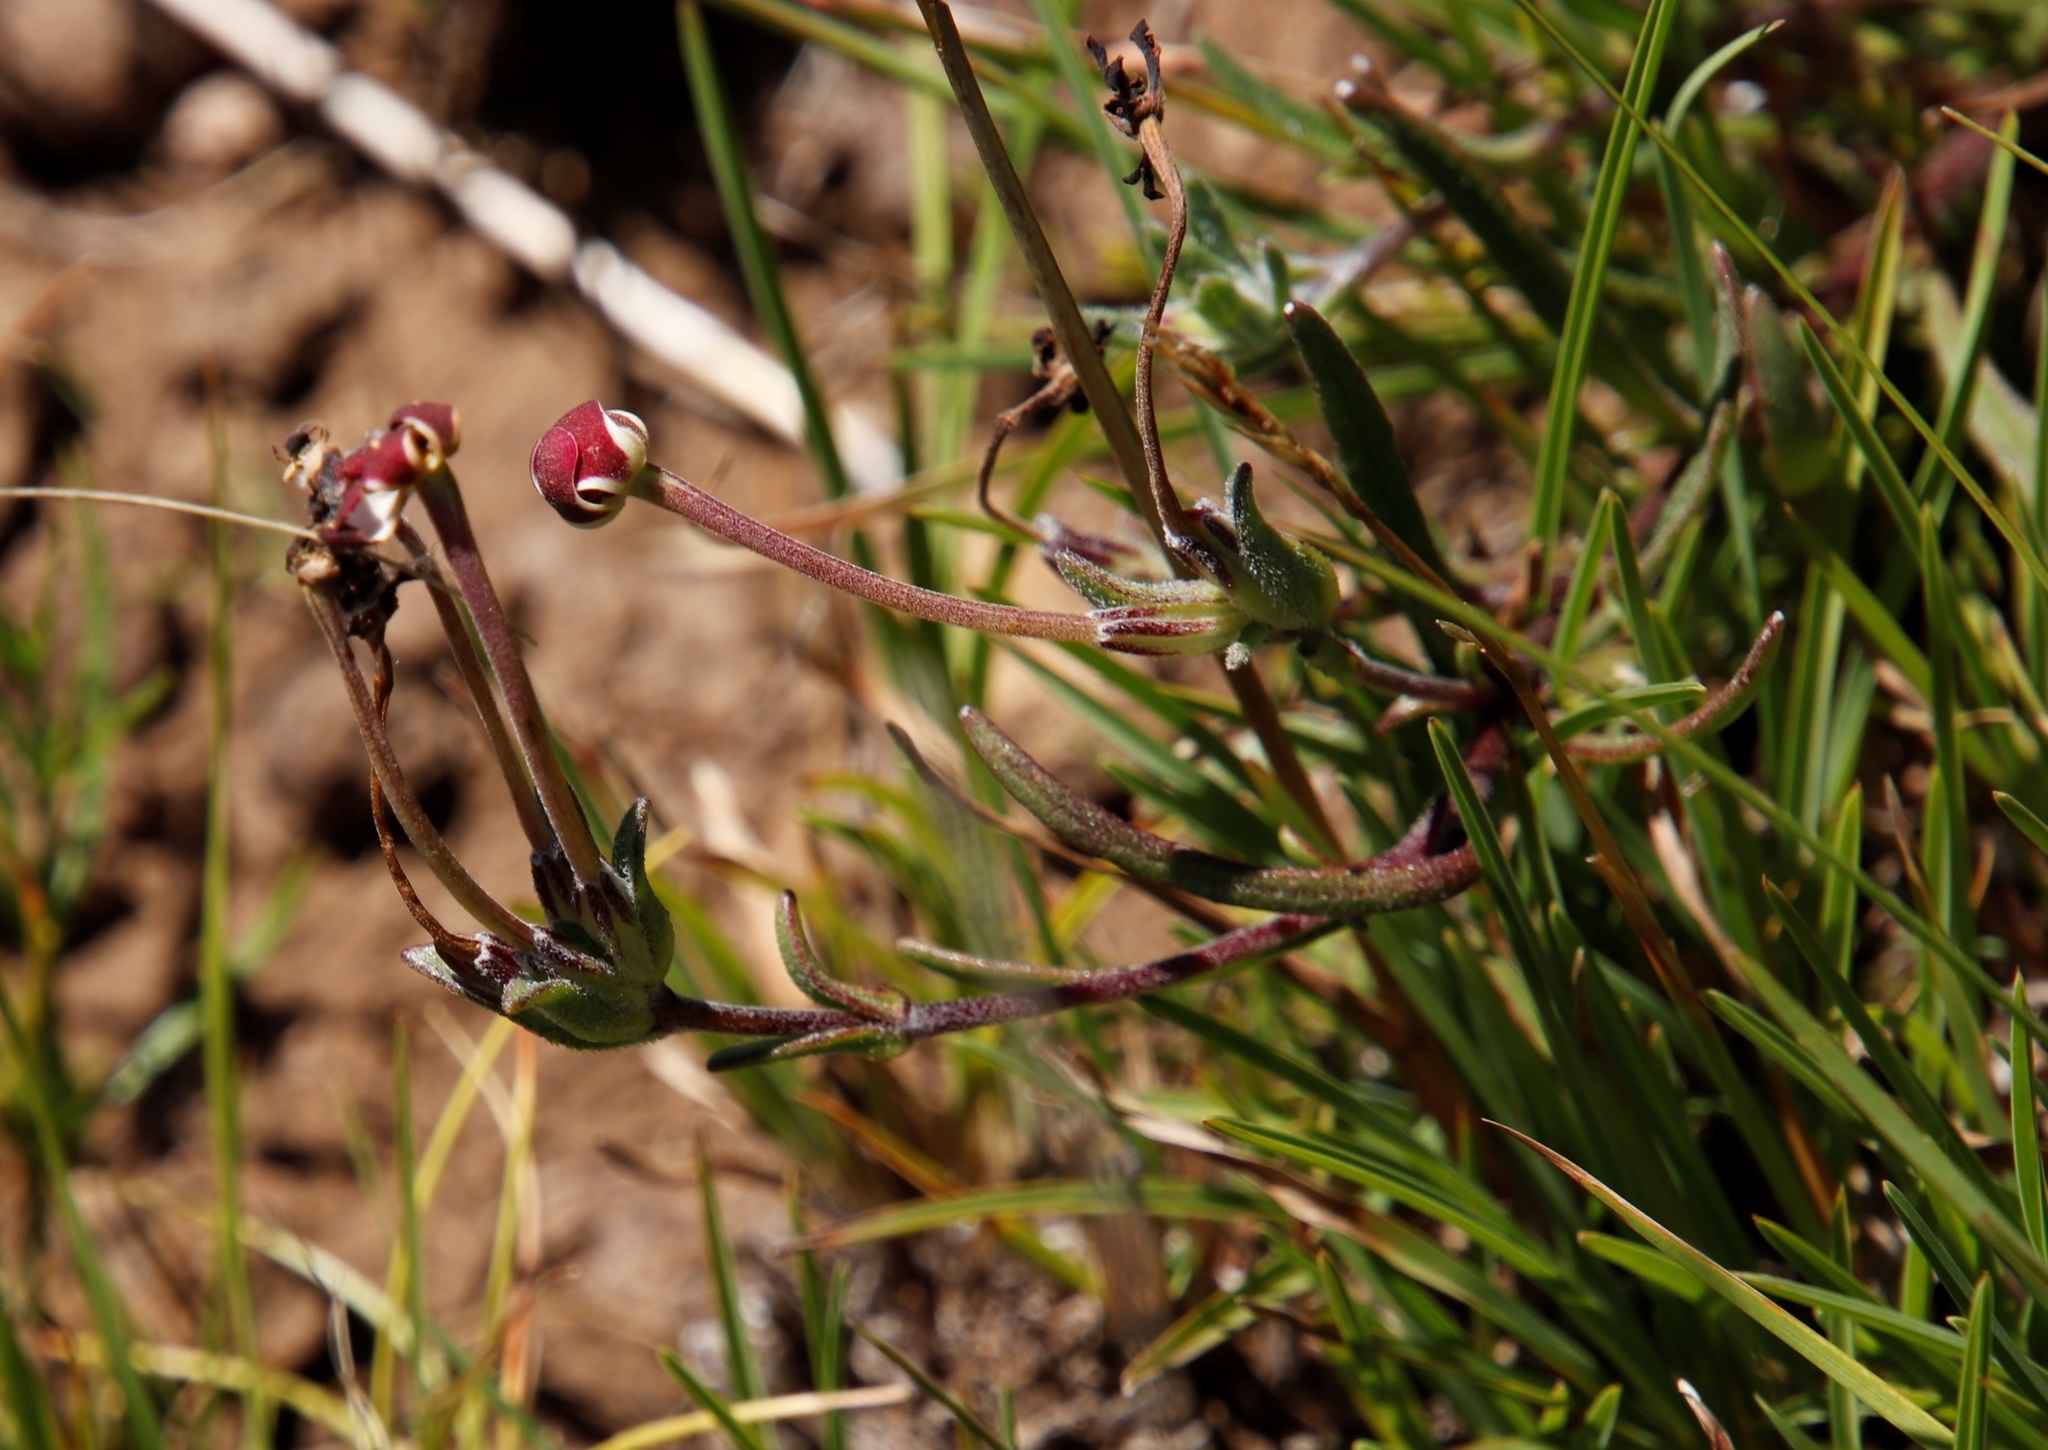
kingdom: Plantae
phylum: Tracheophyta
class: Magnoliopsida
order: Lamiales
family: Scrophulariaceae
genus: Zaluzianskya
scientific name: Zaluzianskya oreophila
